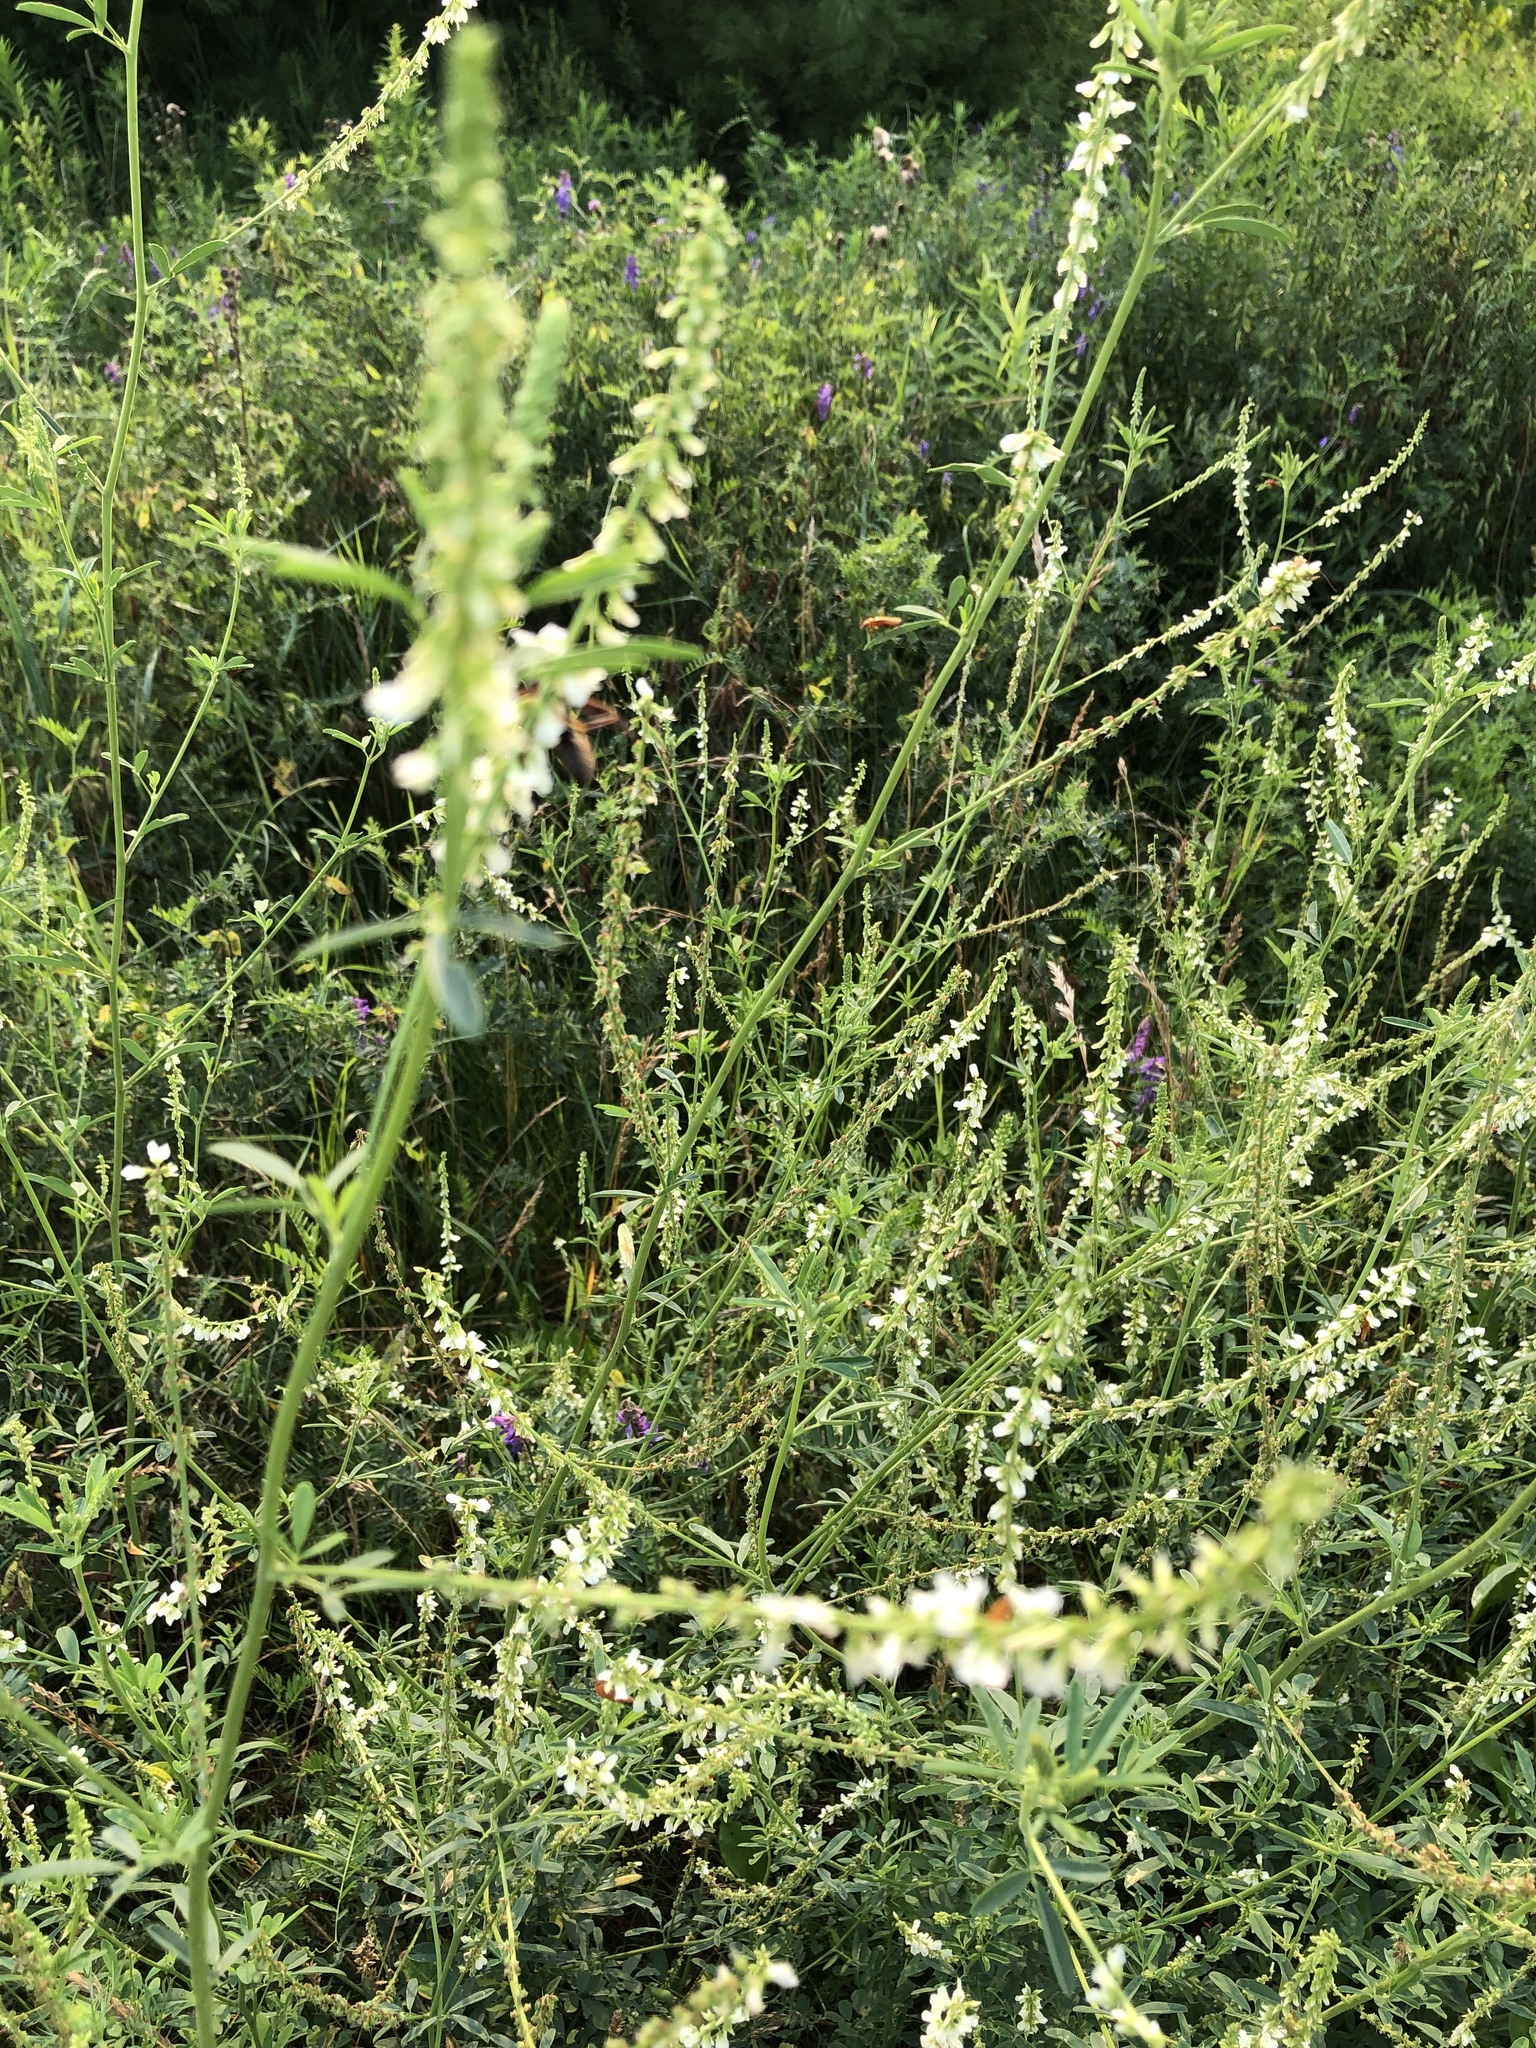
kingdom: Plantae
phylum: Tracheophyta
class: Magnoliopsida
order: Fabales
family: Fabaceae
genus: Melilotus
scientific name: Melilotus albus
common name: White melilot
